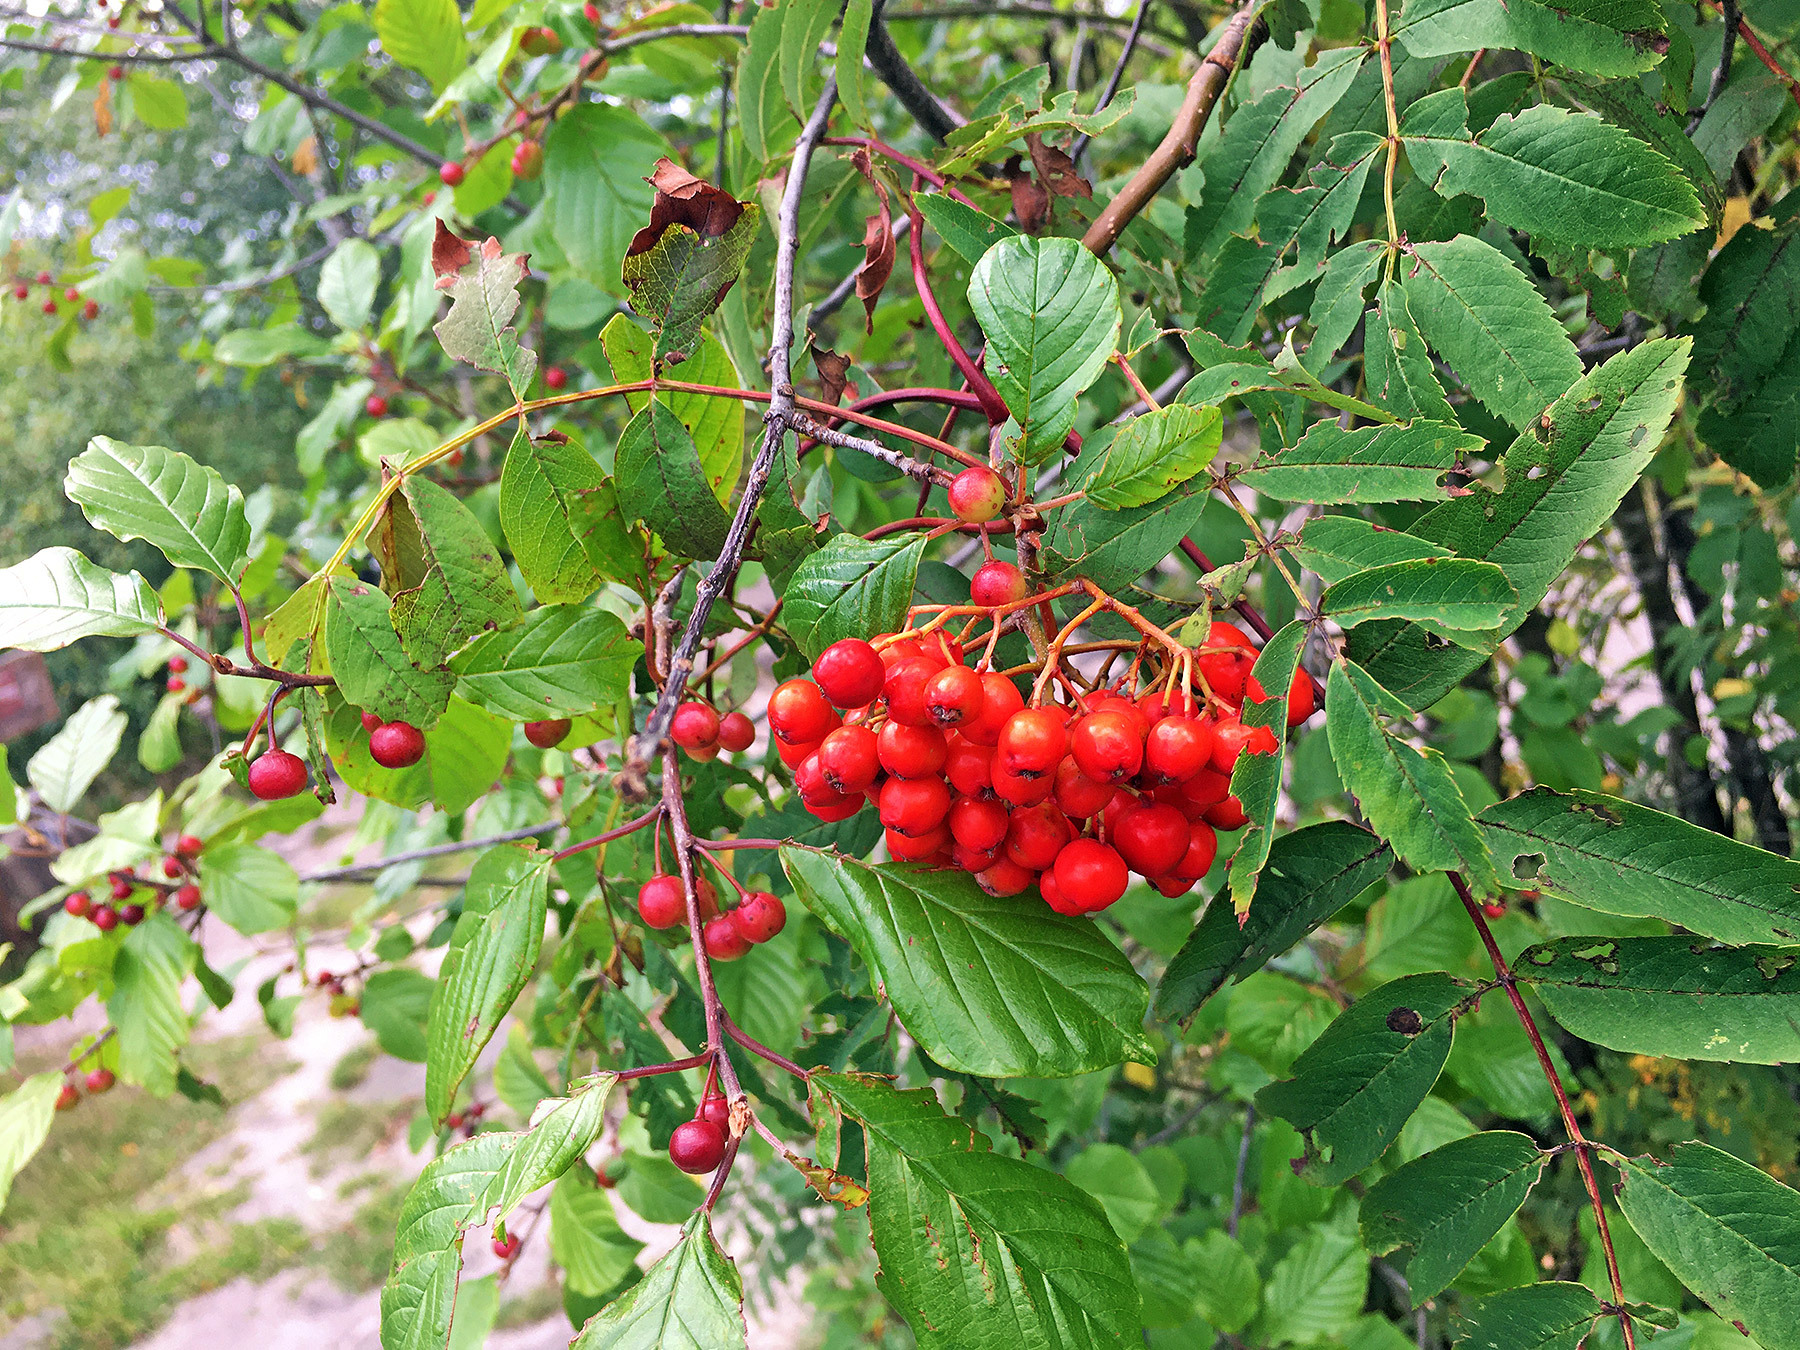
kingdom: Plantae
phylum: Tracheophyta
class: Magnoliopsida
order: Rosales
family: Rosaceae
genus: Sorbus
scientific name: Sorbus aucuparia
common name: Rowan
